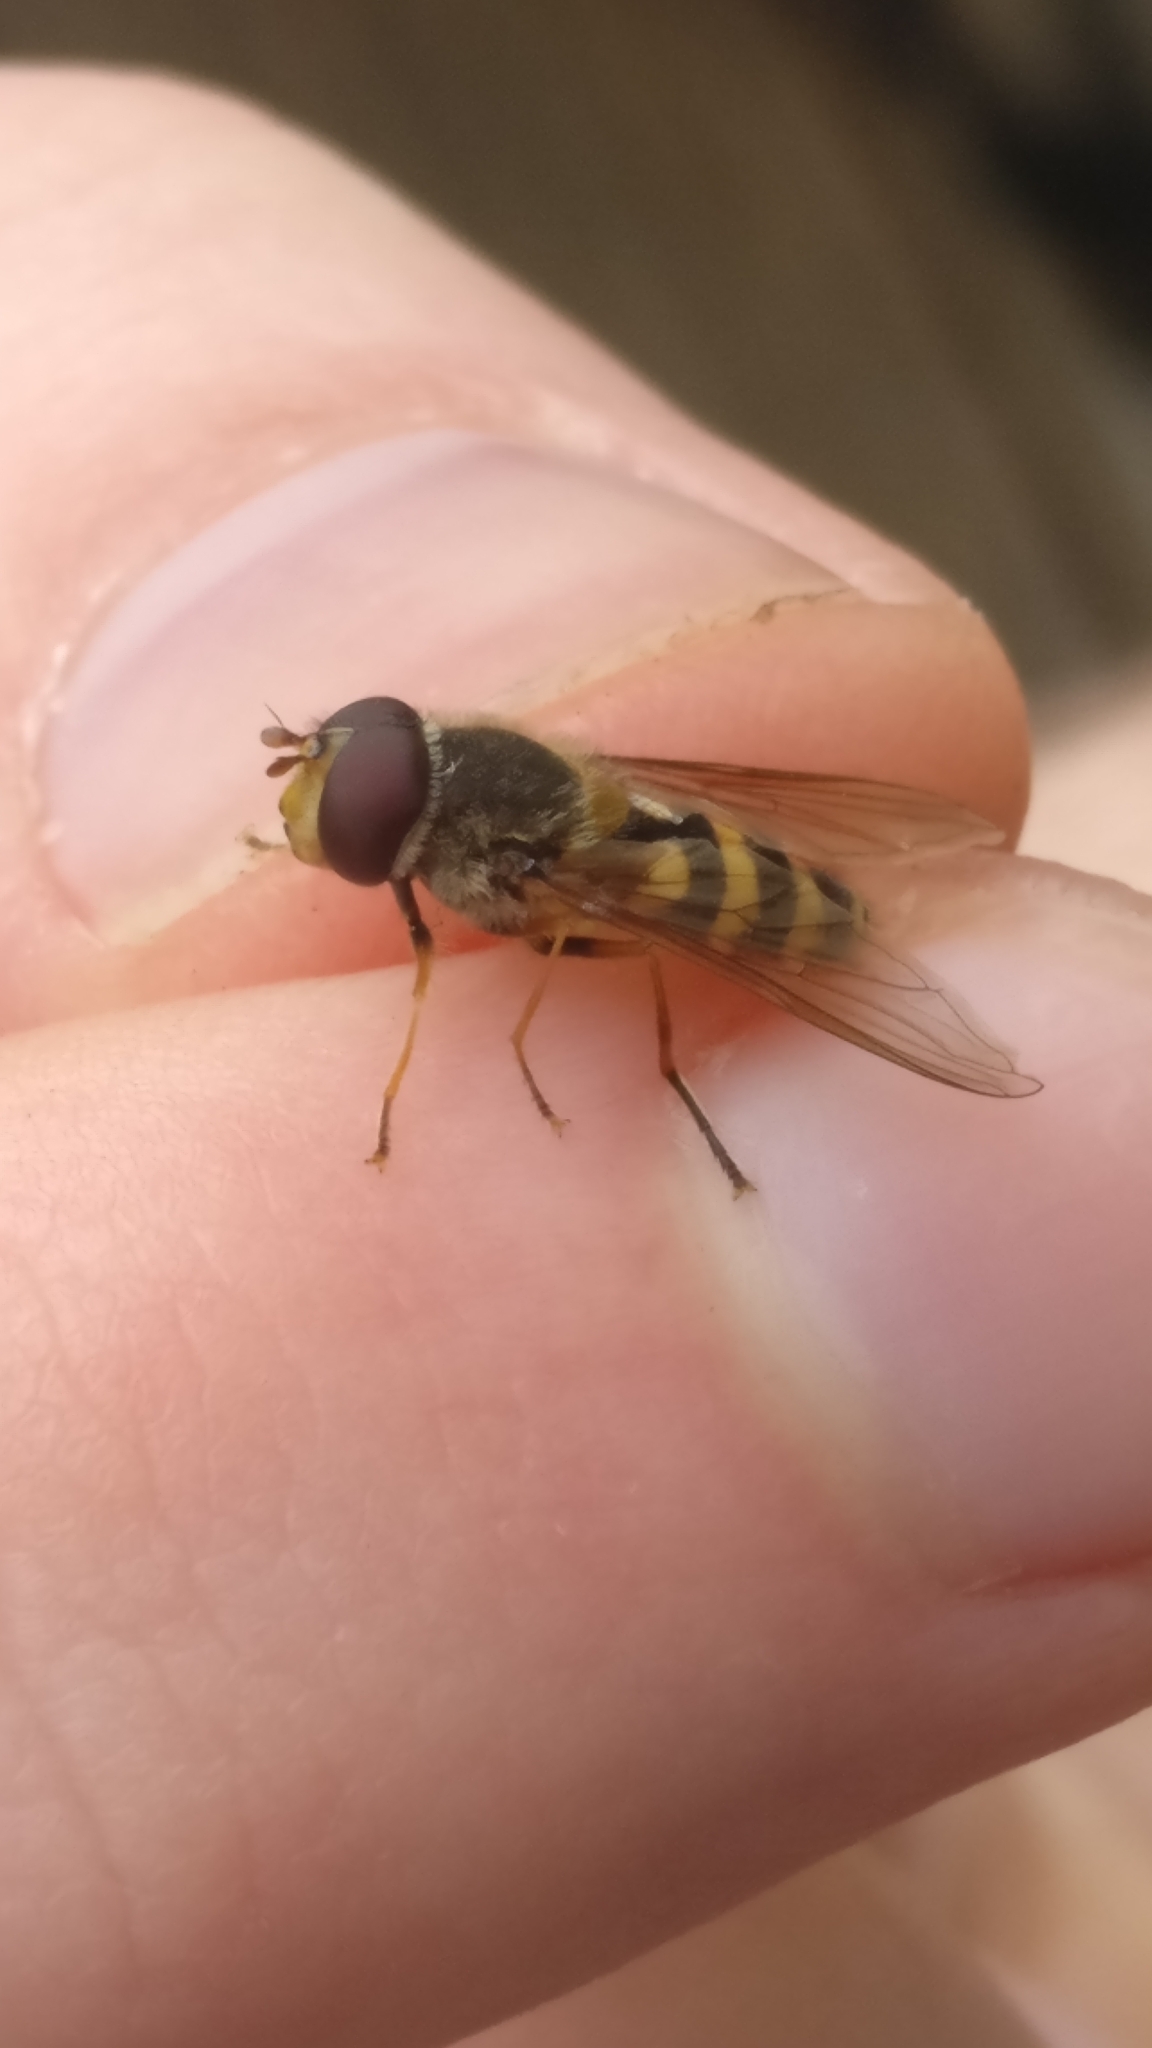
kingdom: Animalia
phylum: Arthropoda
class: Insecta
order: Diptera
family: Syrphidae
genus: Syrphus
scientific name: Syrphus
